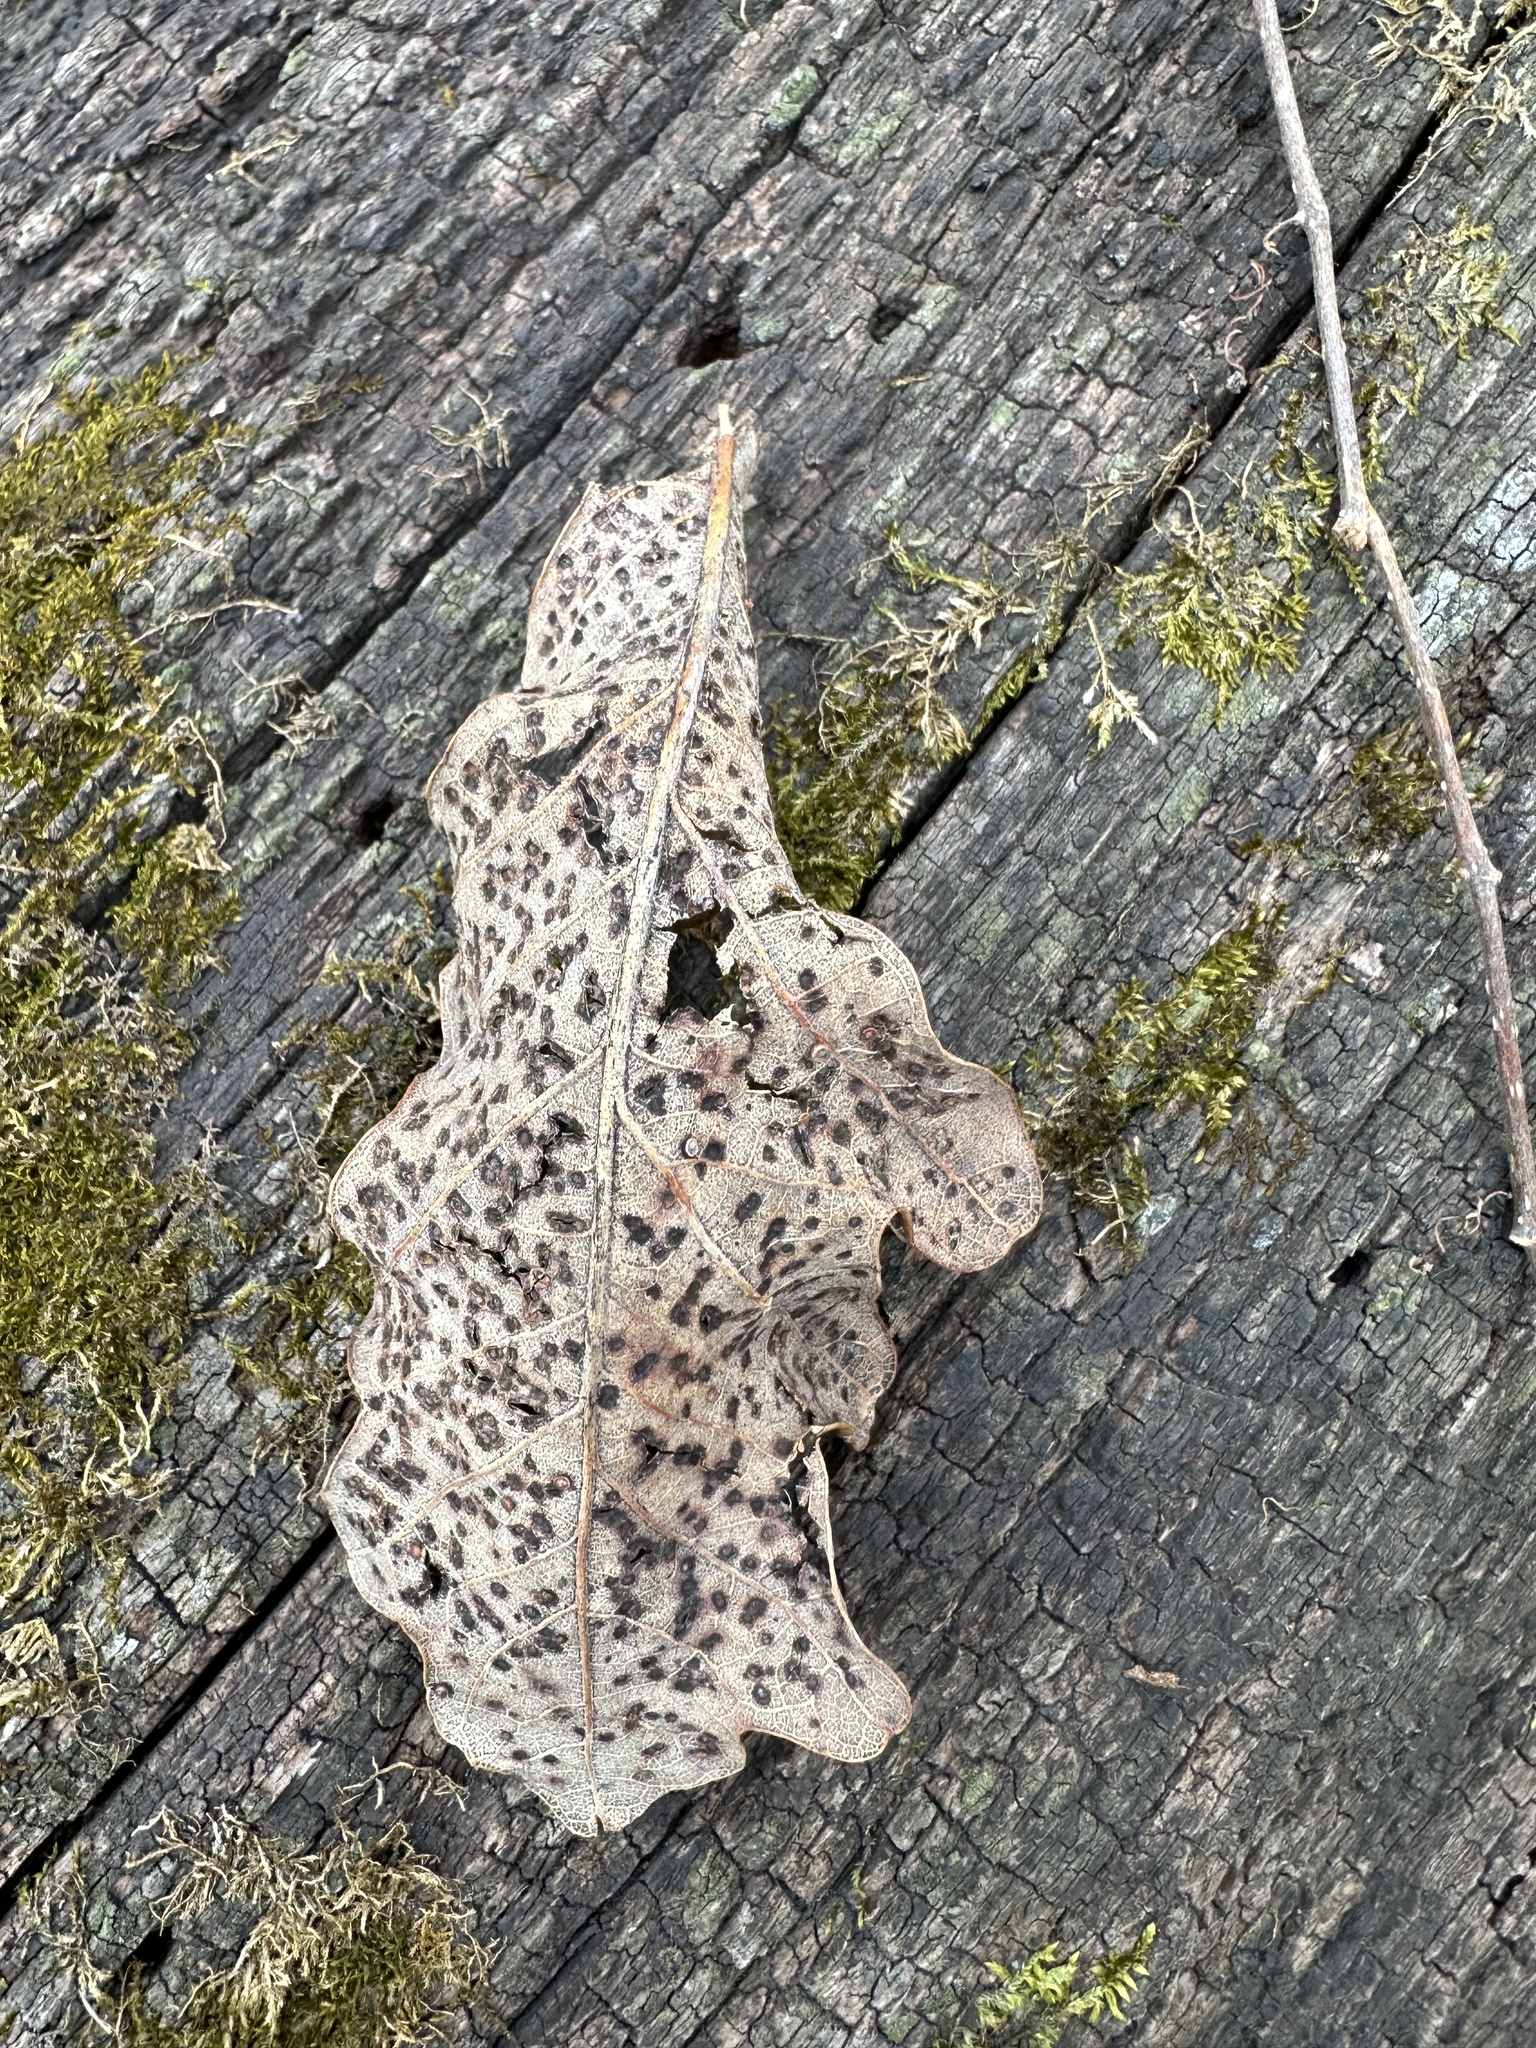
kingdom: Animalia
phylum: Arthropoda
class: Insecta
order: Hymenoptera
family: Cynipidae
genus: Neuroterus
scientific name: Neuroterus
